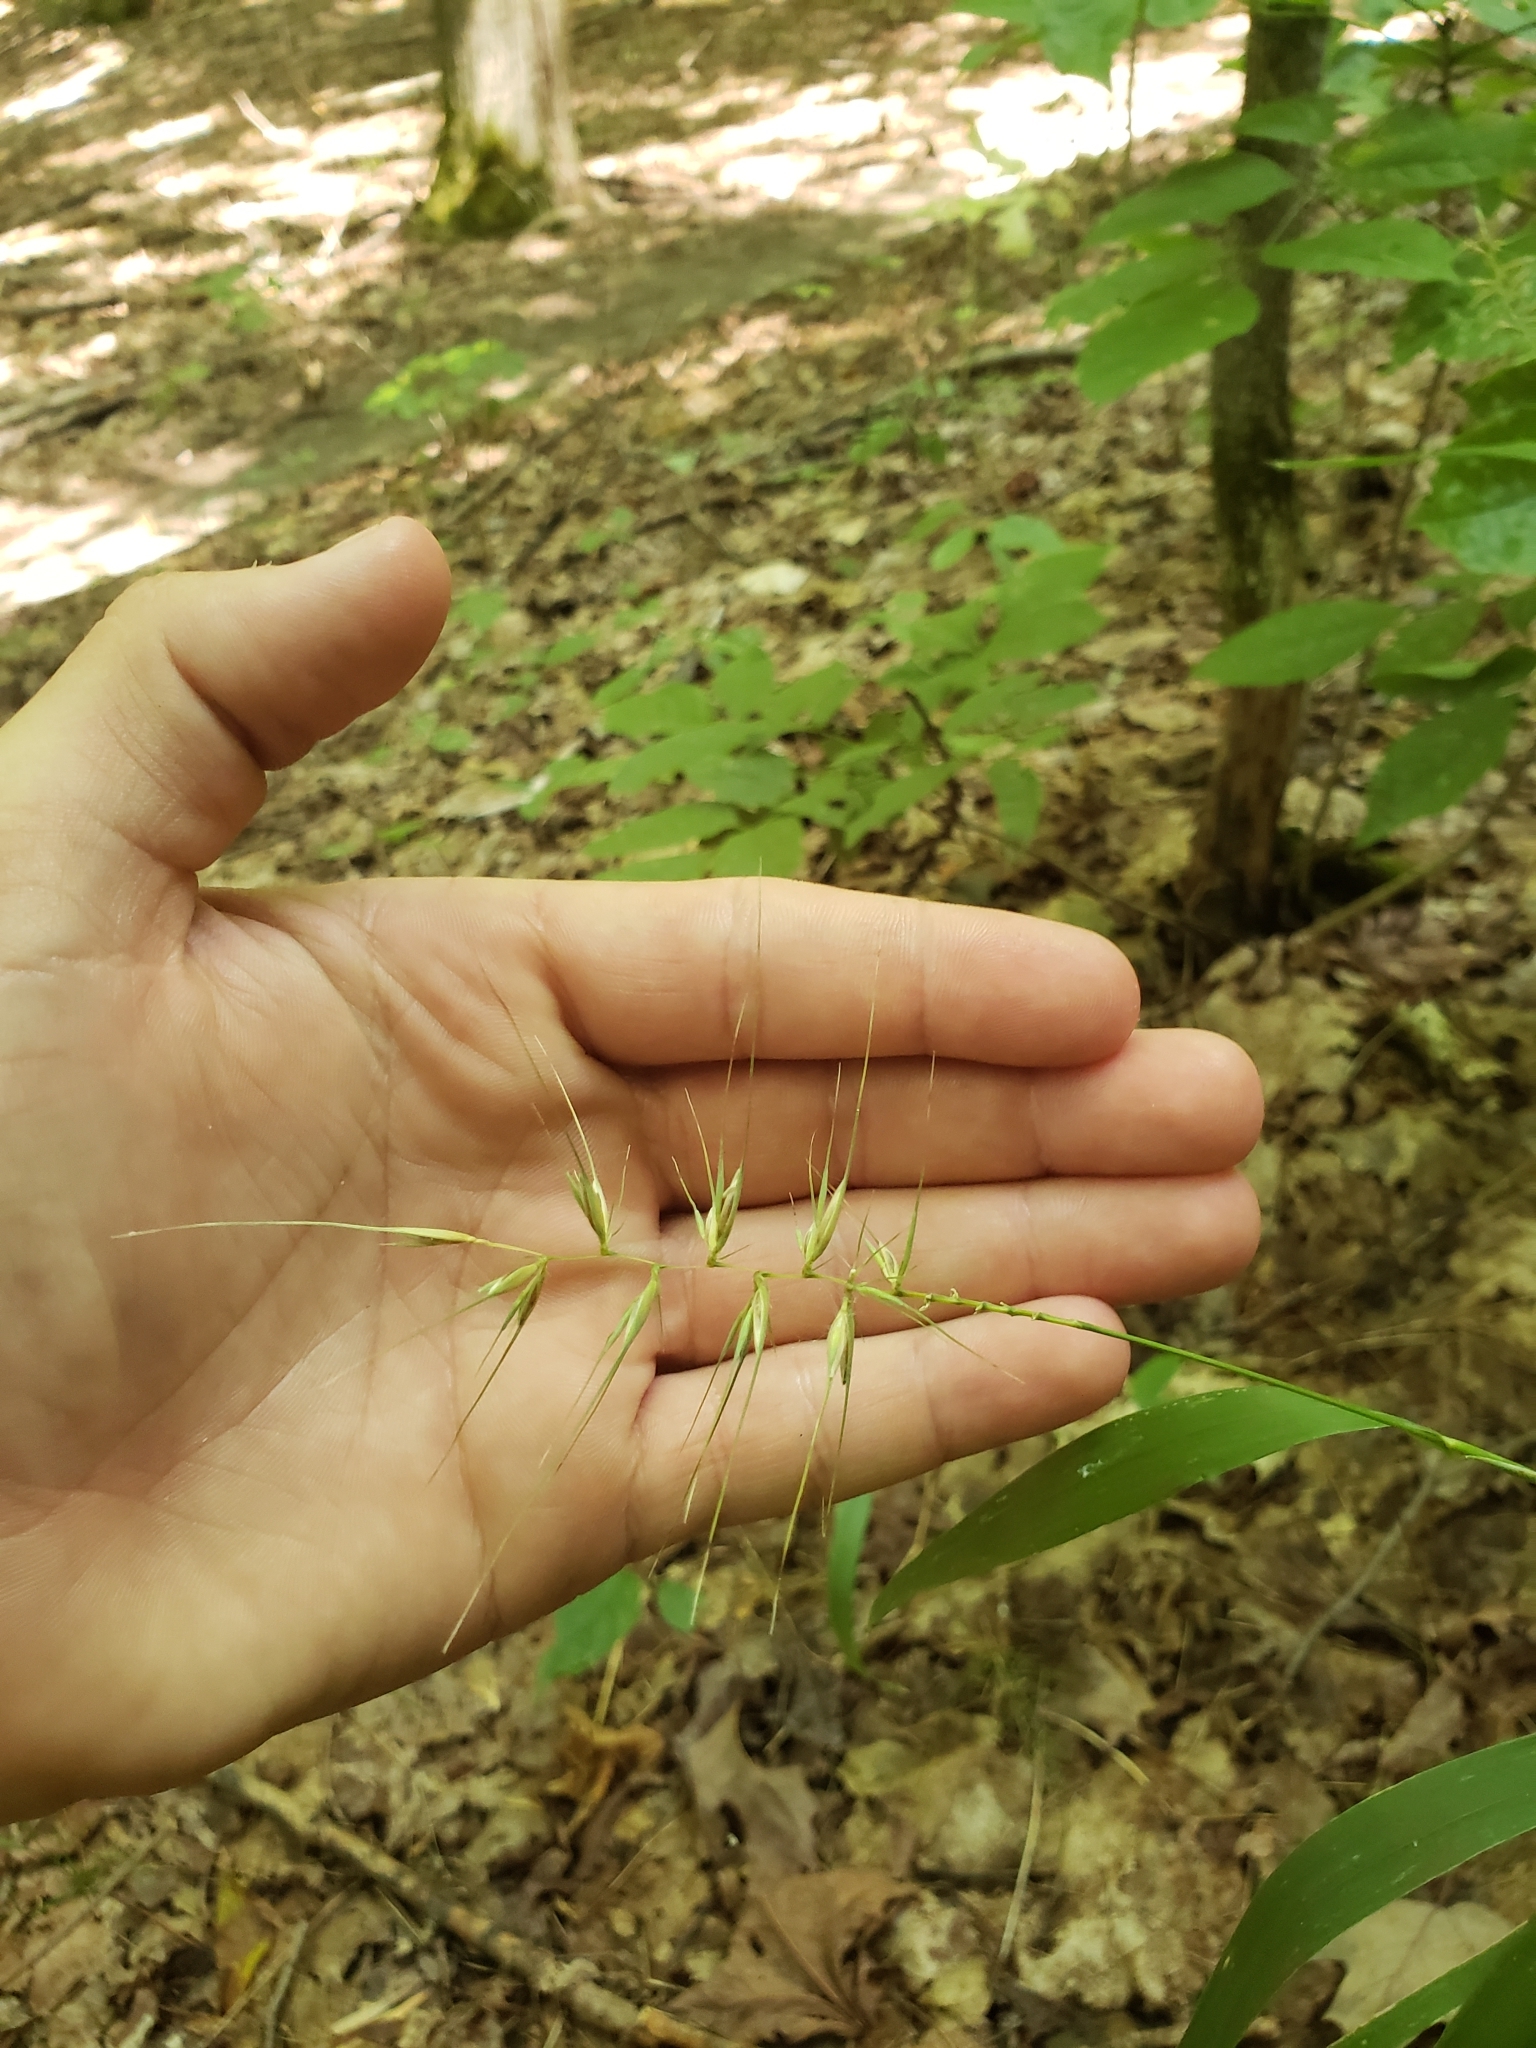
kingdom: Plantae
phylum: Tracheophyta
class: Liliopsida
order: Poales
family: Poaceae
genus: Elymus
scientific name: Elymus hystrix
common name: Bottlebrush grass
